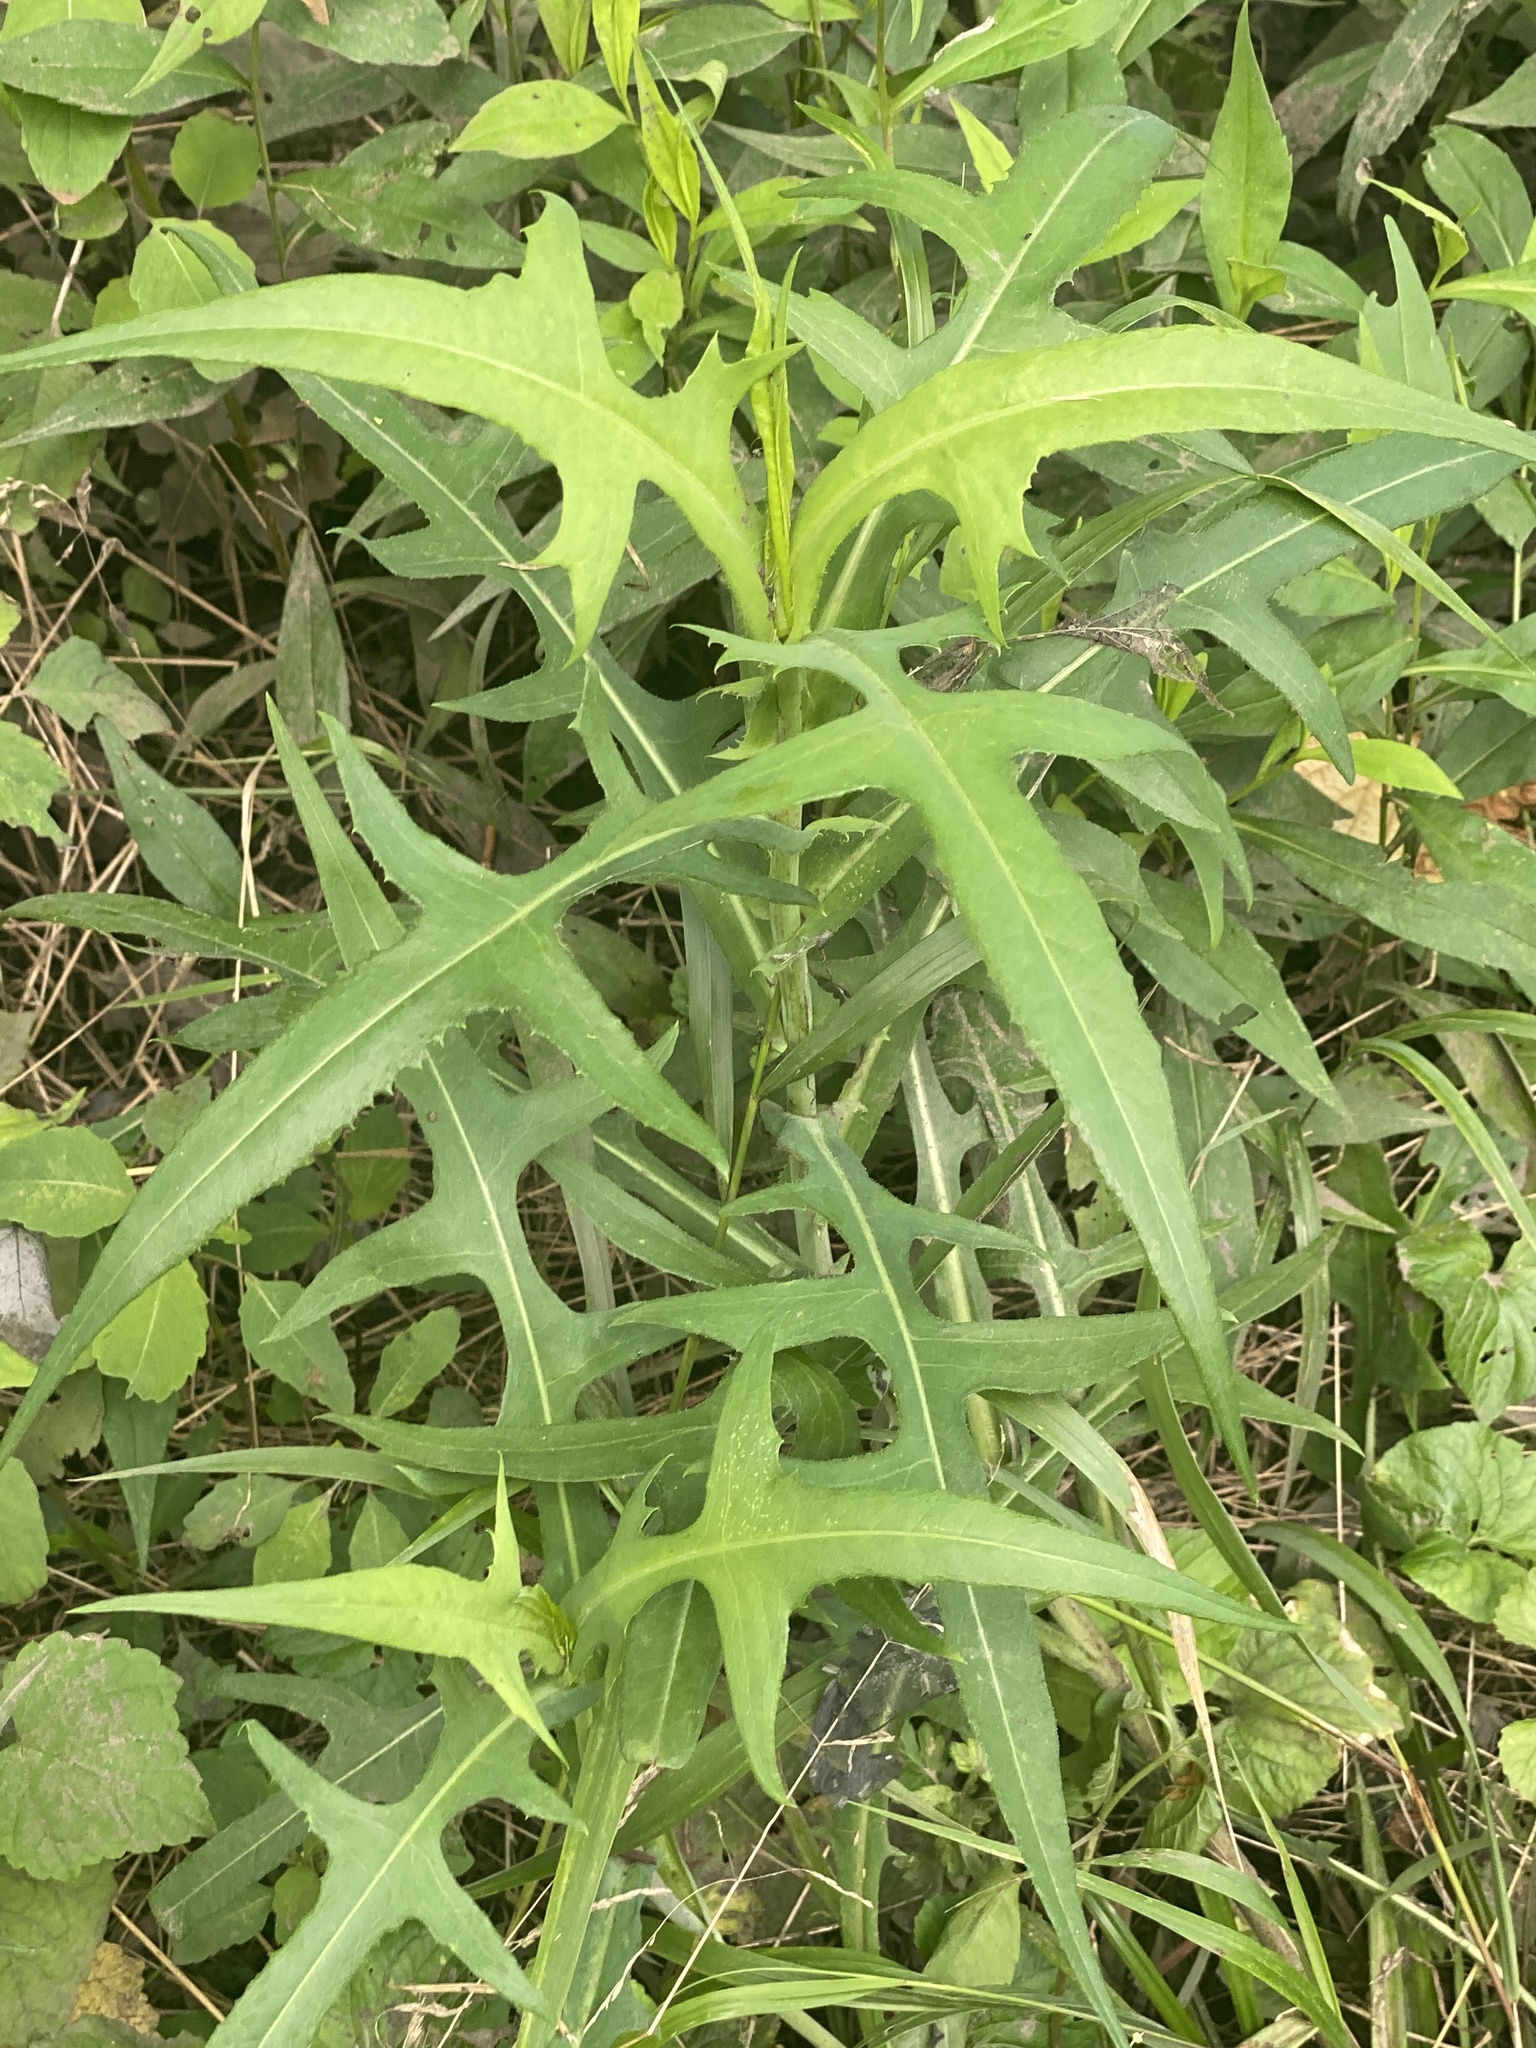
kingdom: Plantae
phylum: Tracheophyta
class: Magnoliopsida
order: Asterales
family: Asteraceae
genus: Lactuca
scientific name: Lactuca canadensis
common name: Canada lettuce
